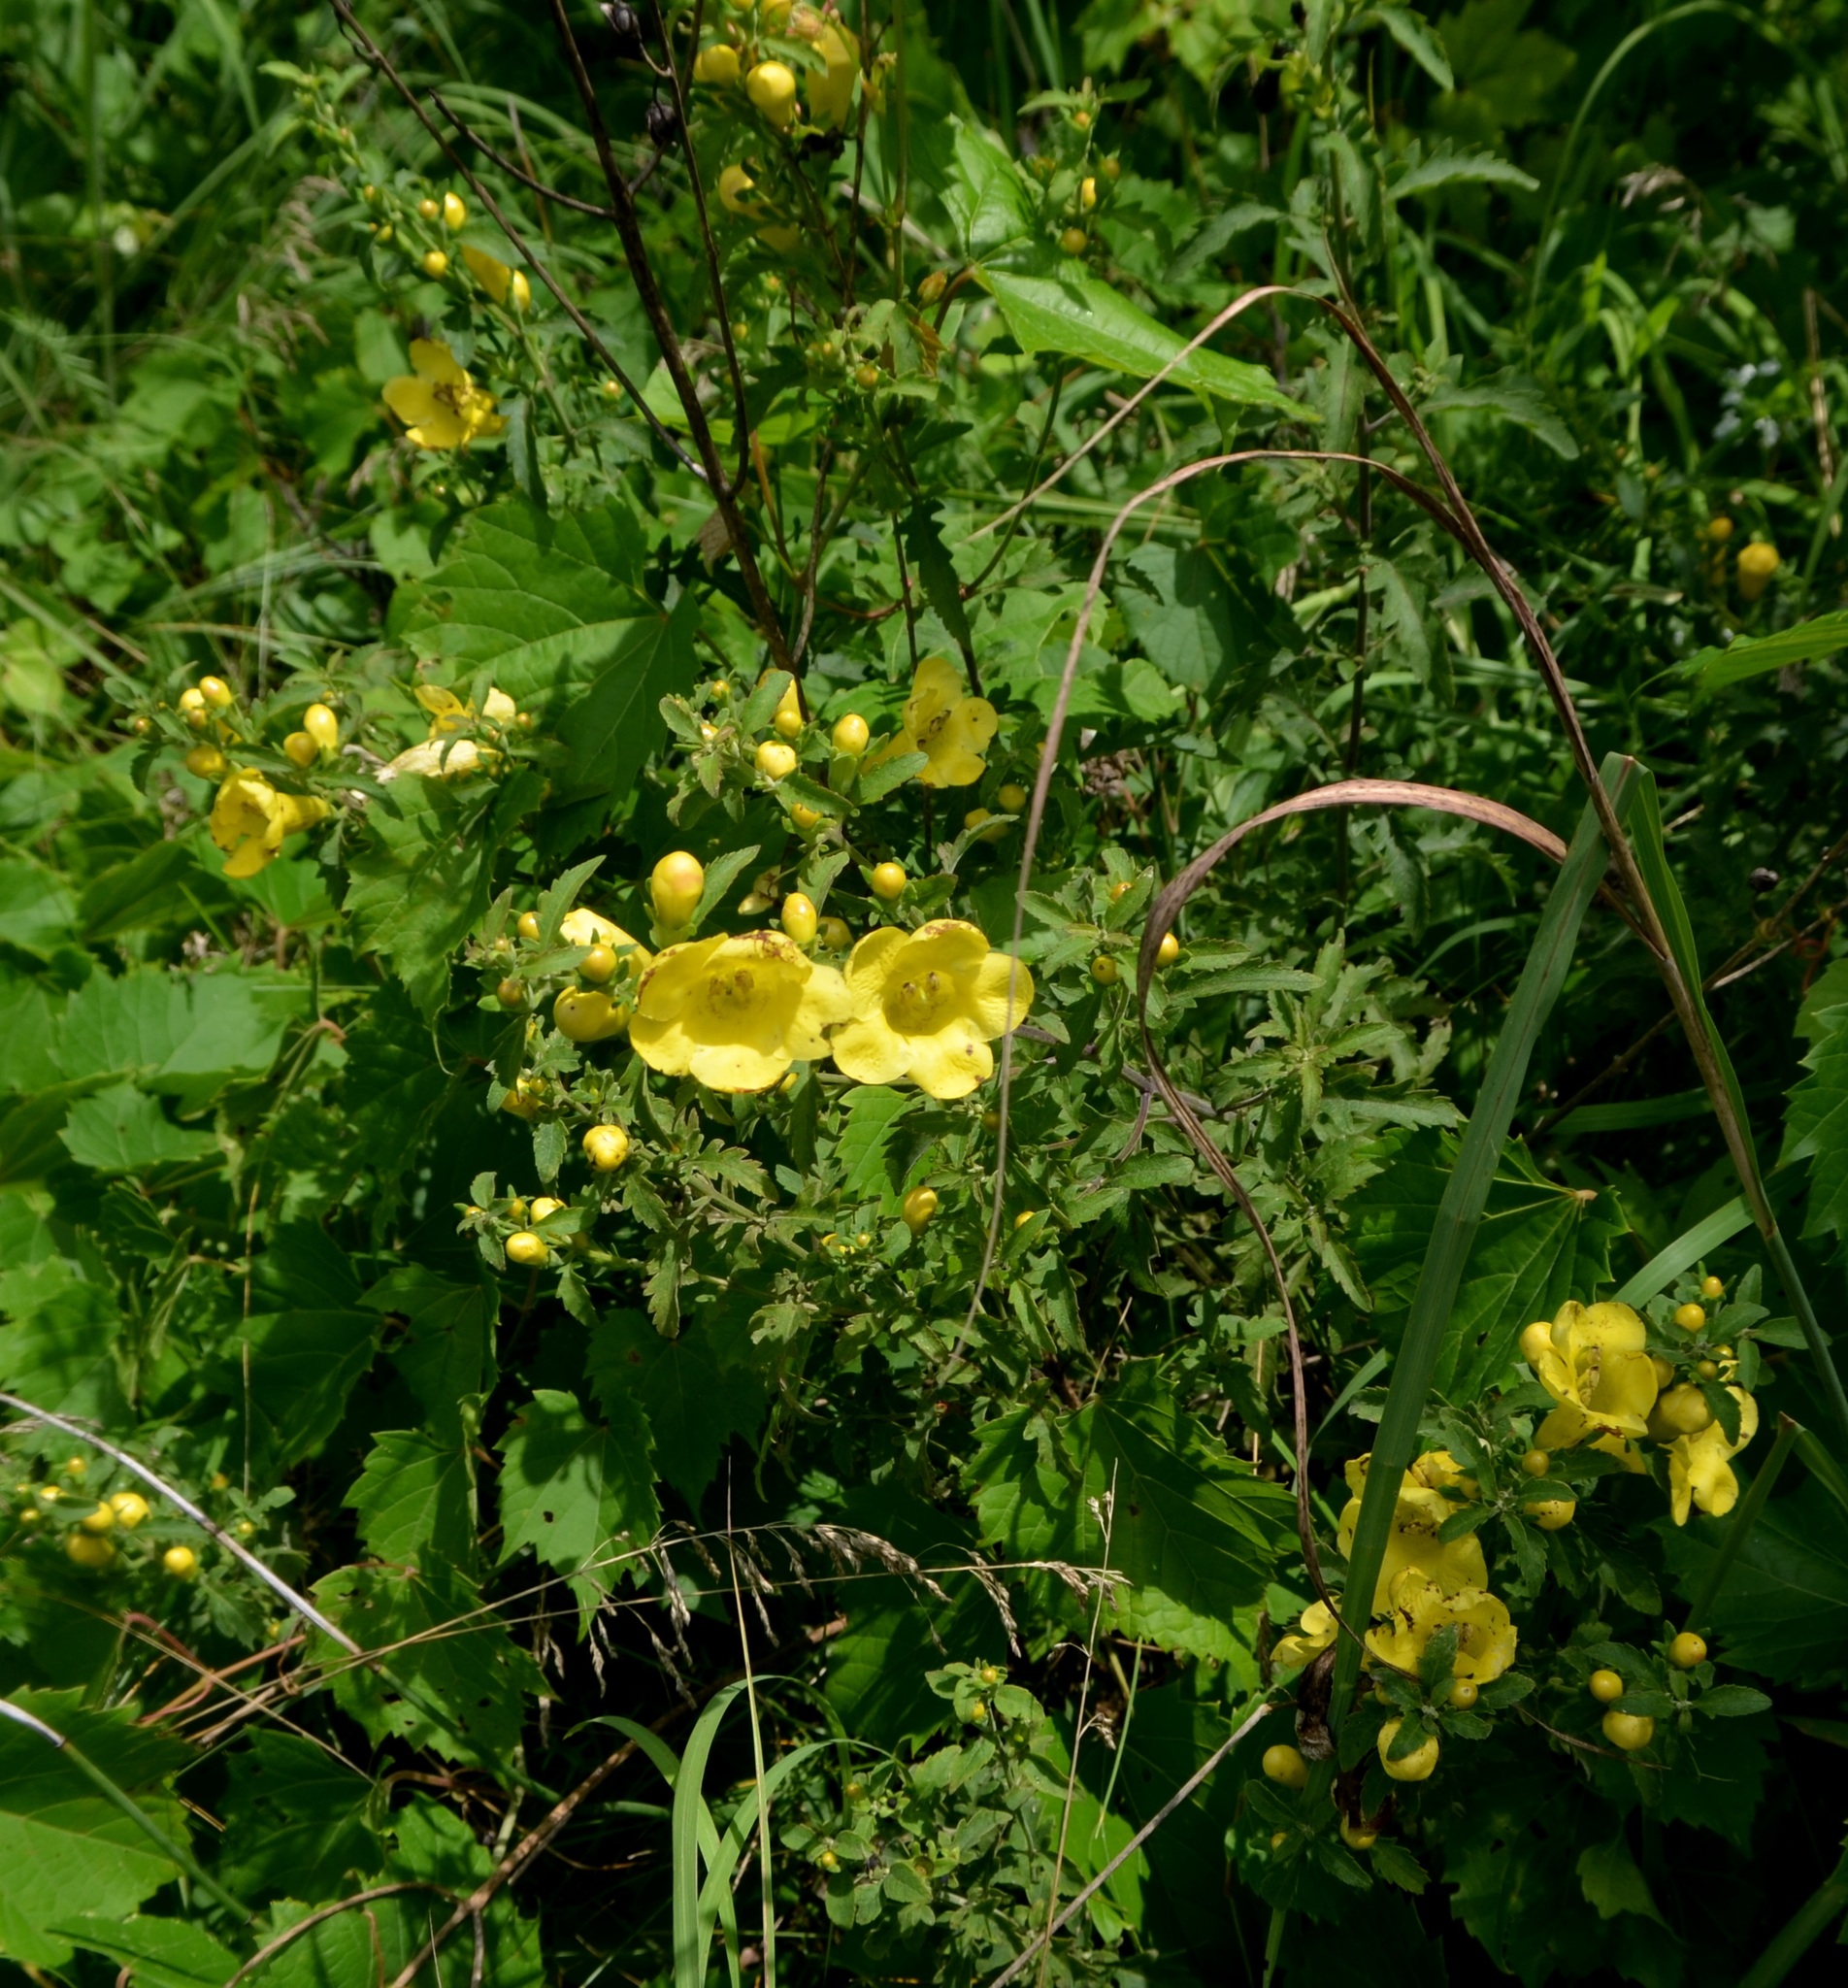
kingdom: Plantae
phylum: Tracheophyta
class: Magnoliopsida
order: Lamiales
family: Orobanchaceae
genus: Aureolaria
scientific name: Aureolaria grandiflora
